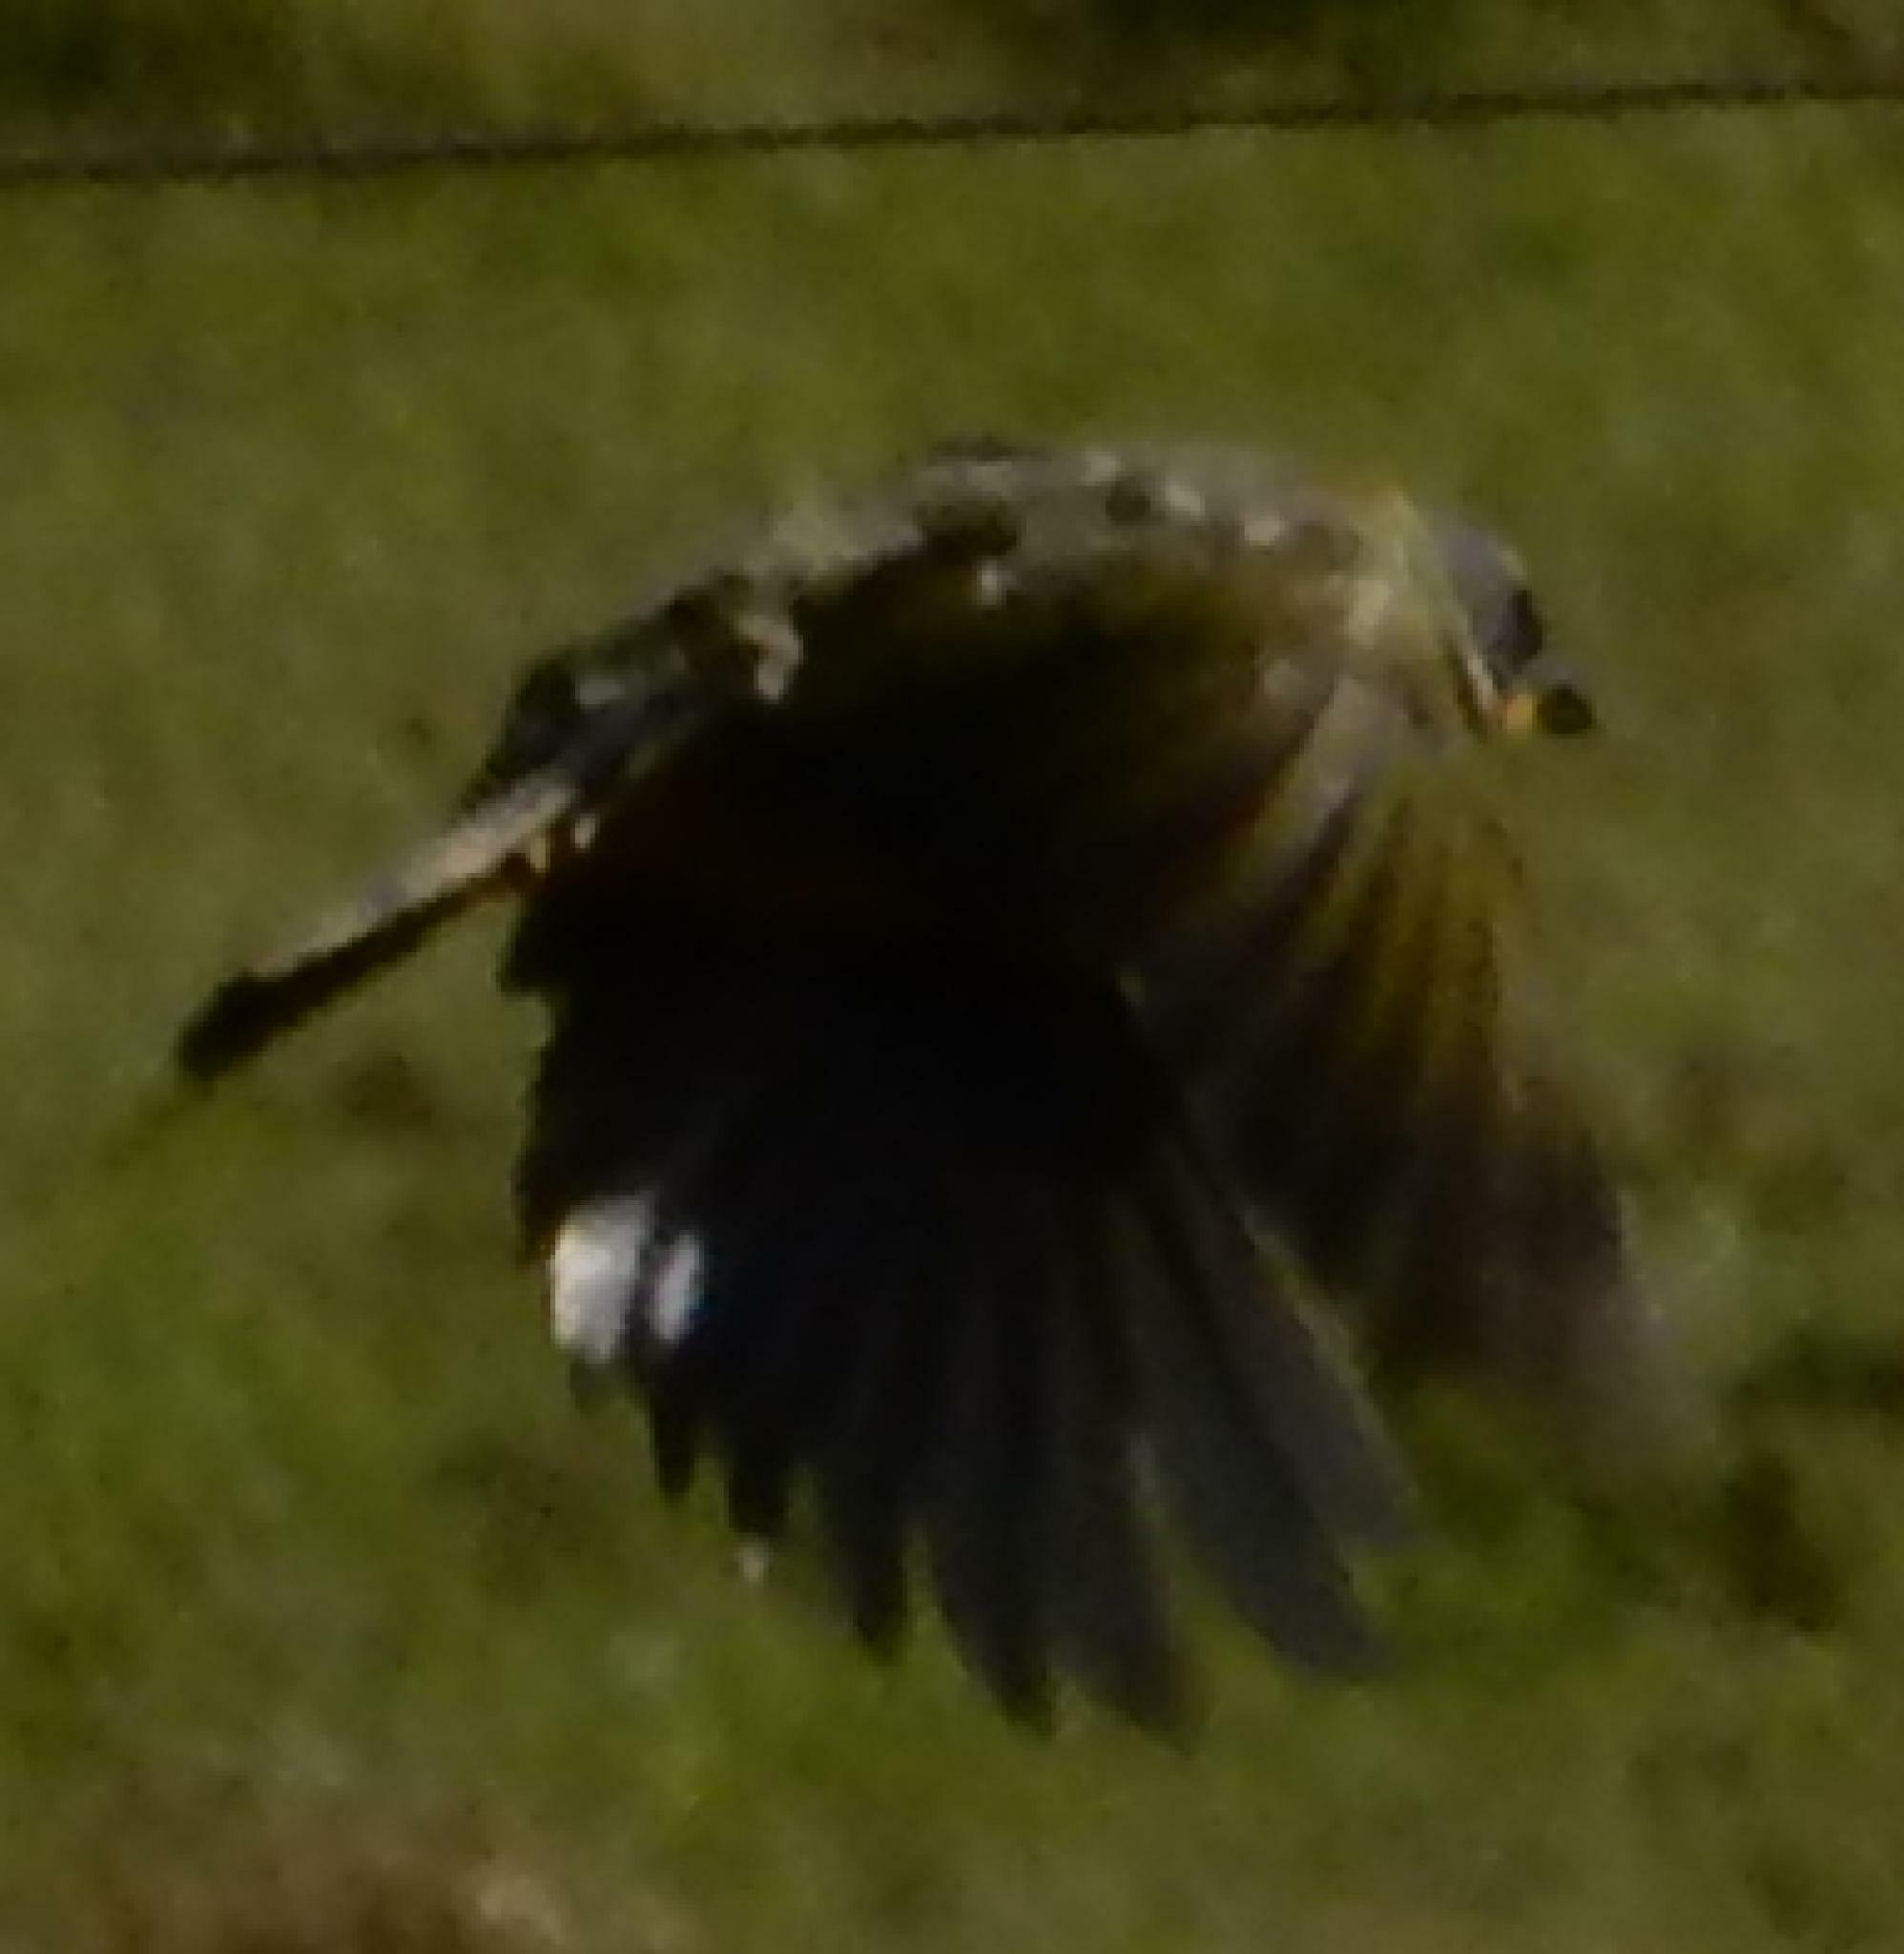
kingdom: Animalia
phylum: Chordata
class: Aves
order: Passeriformes
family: Malaconotidae
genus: Telophorus
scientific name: Telophorus zeylonus
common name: Bokmakierie
